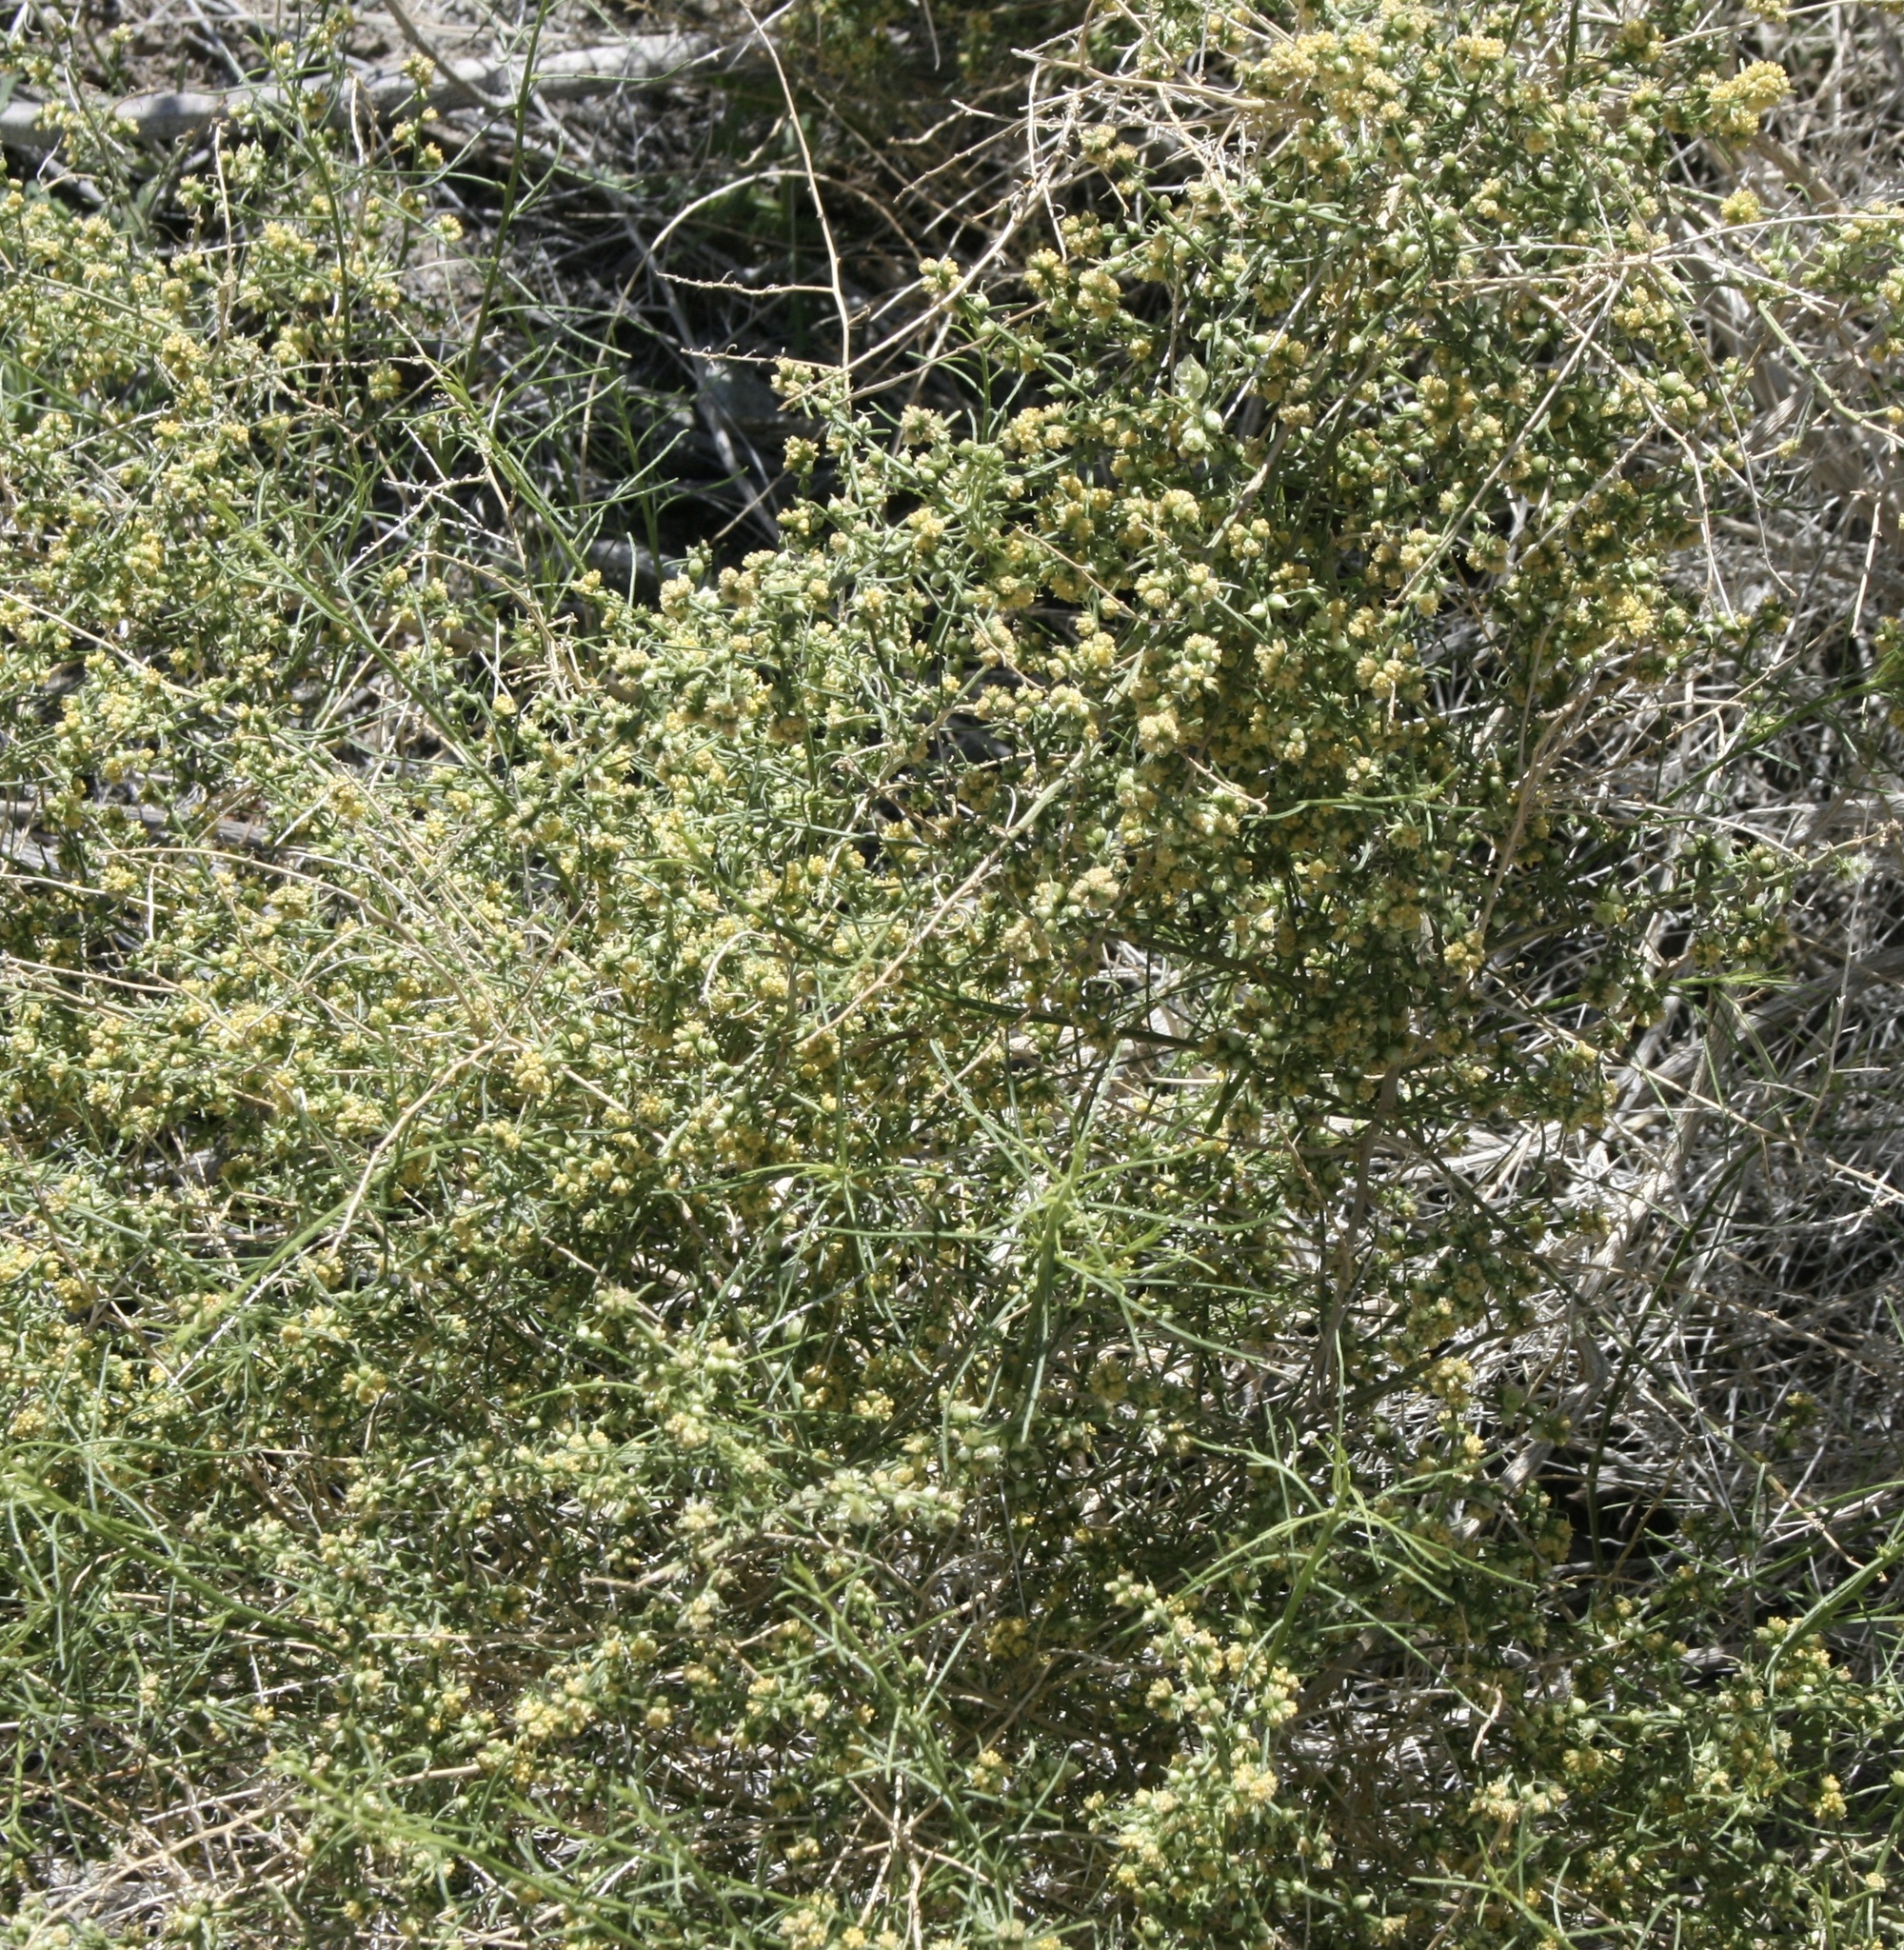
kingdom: Plantae
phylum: Tracheophyta
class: Magnoliopsida
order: Asterales
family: Asteraceae
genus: Ambrosia
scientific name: Ambrosia salsola
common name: Burrobrush
